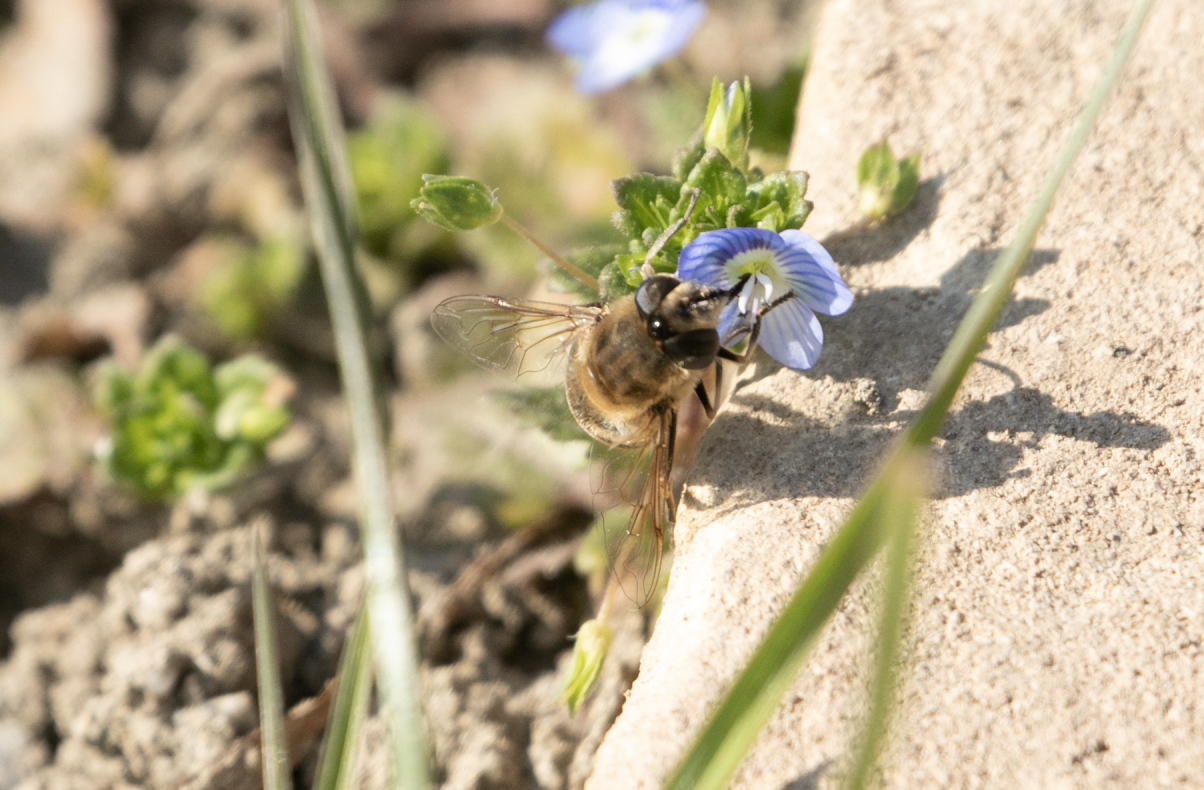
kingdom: Animalia
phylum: Arthropoda
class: Insecta
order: Diptera
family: Syrphidae
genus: Eristalis
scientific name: Eristalis tenax
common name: Drone fly
